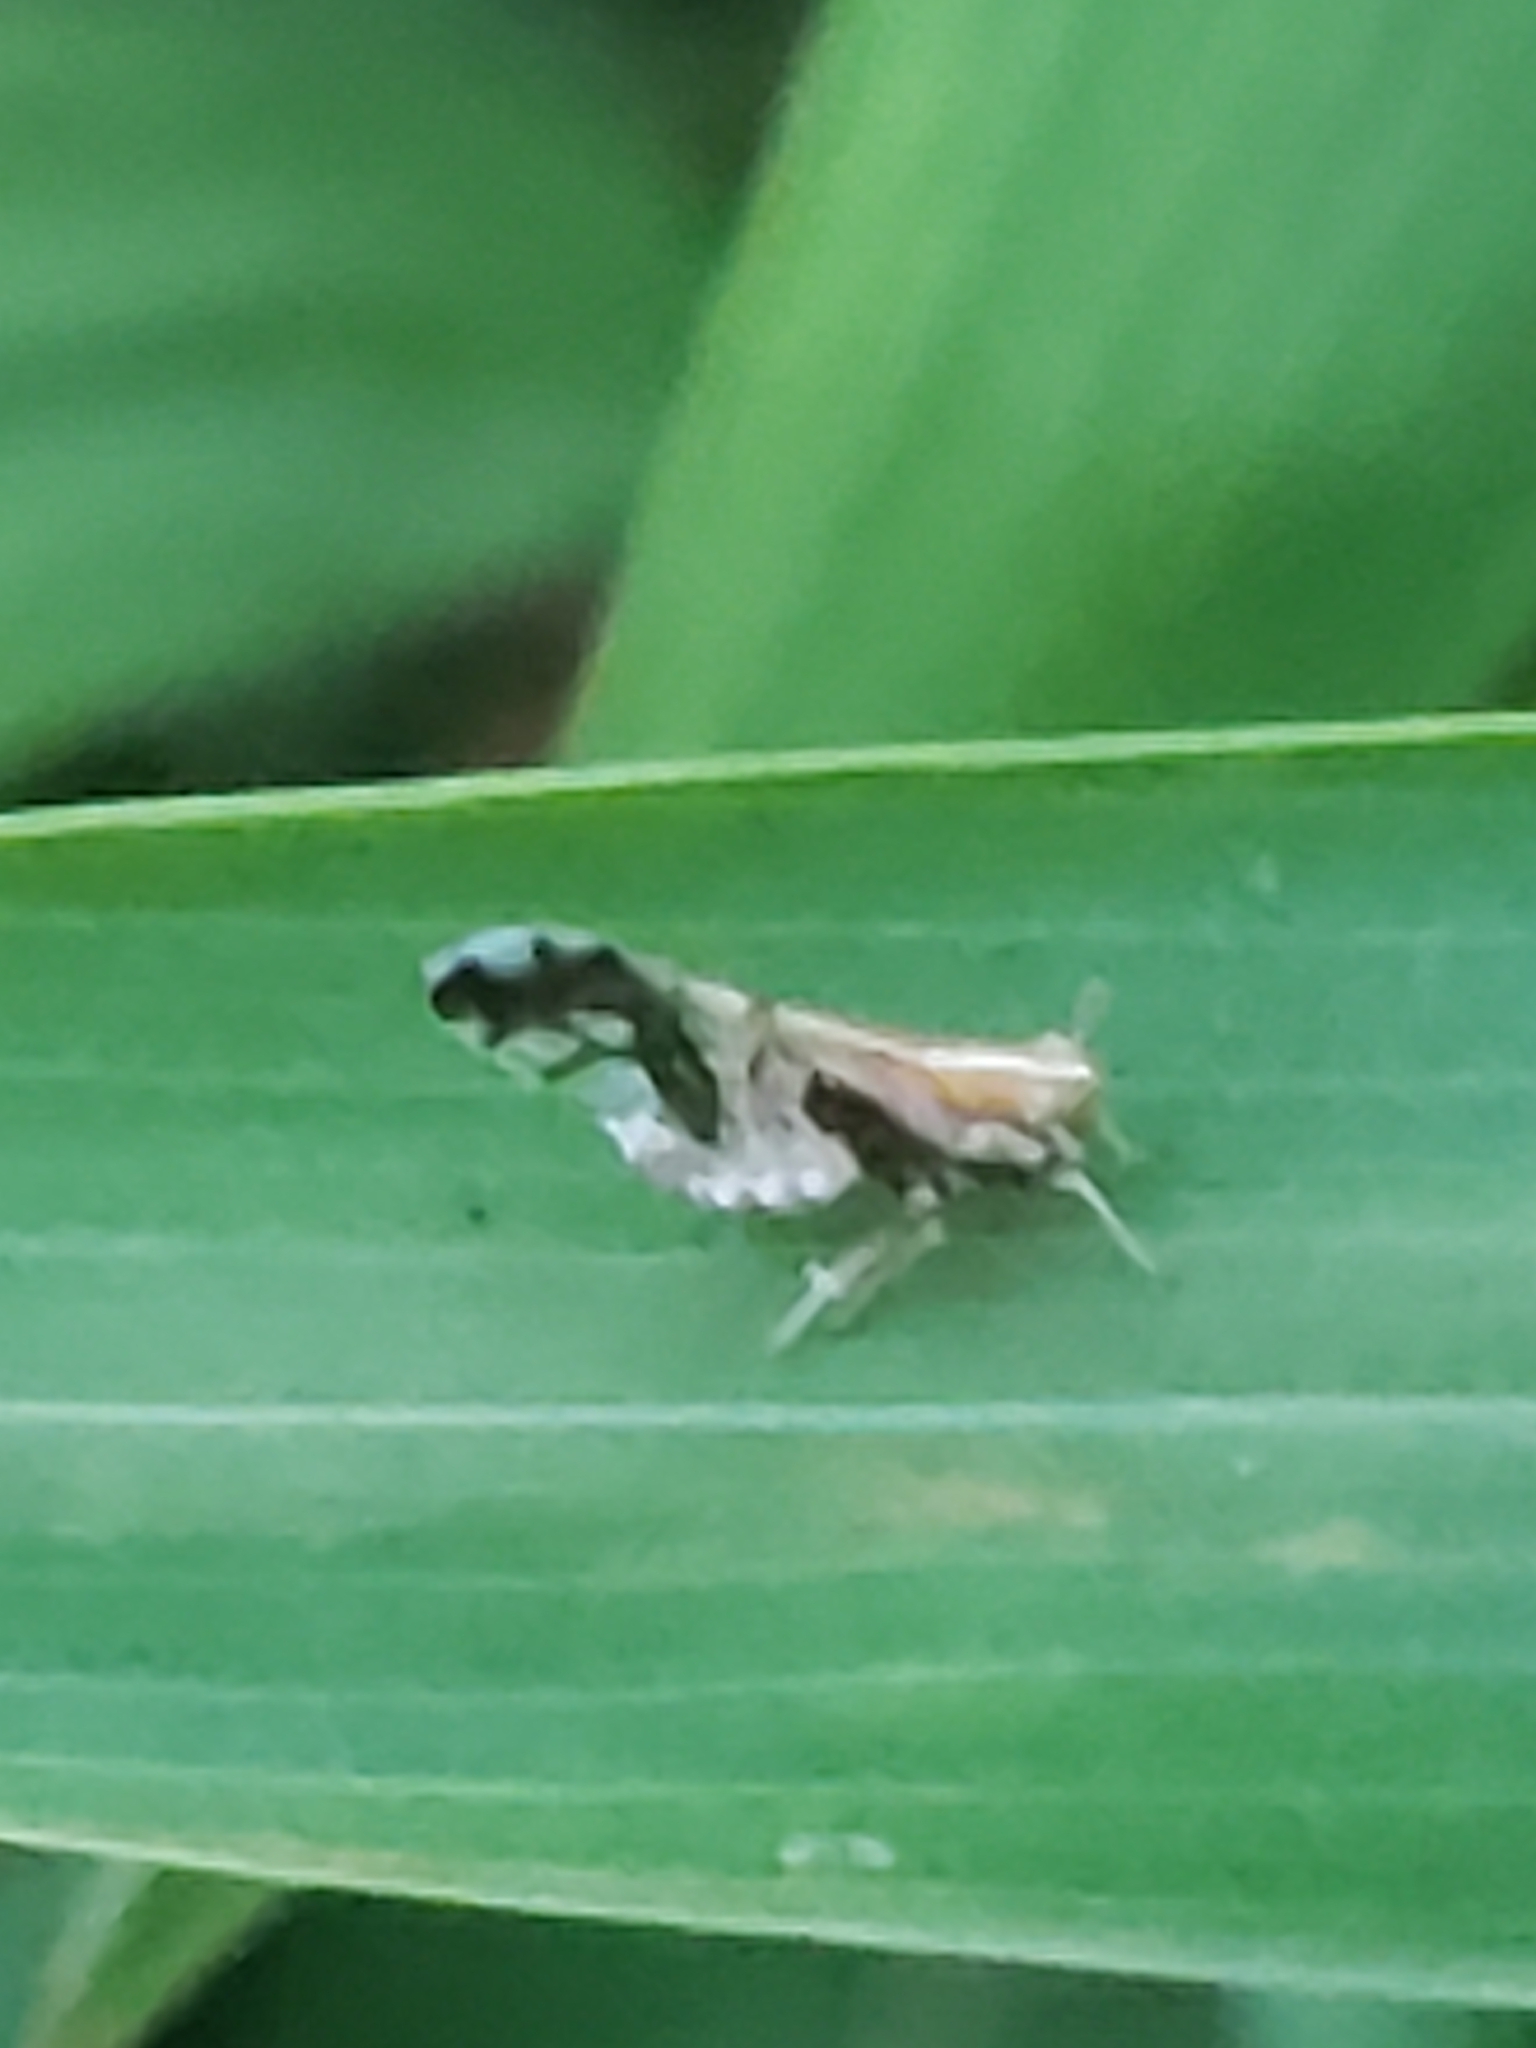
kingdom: Animalia
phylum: Arthropoda
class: Insecta
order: Hemiptera
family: Delphacidae
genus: Liburniella
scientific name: Liburniella ornata
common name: Ornate planthopper
